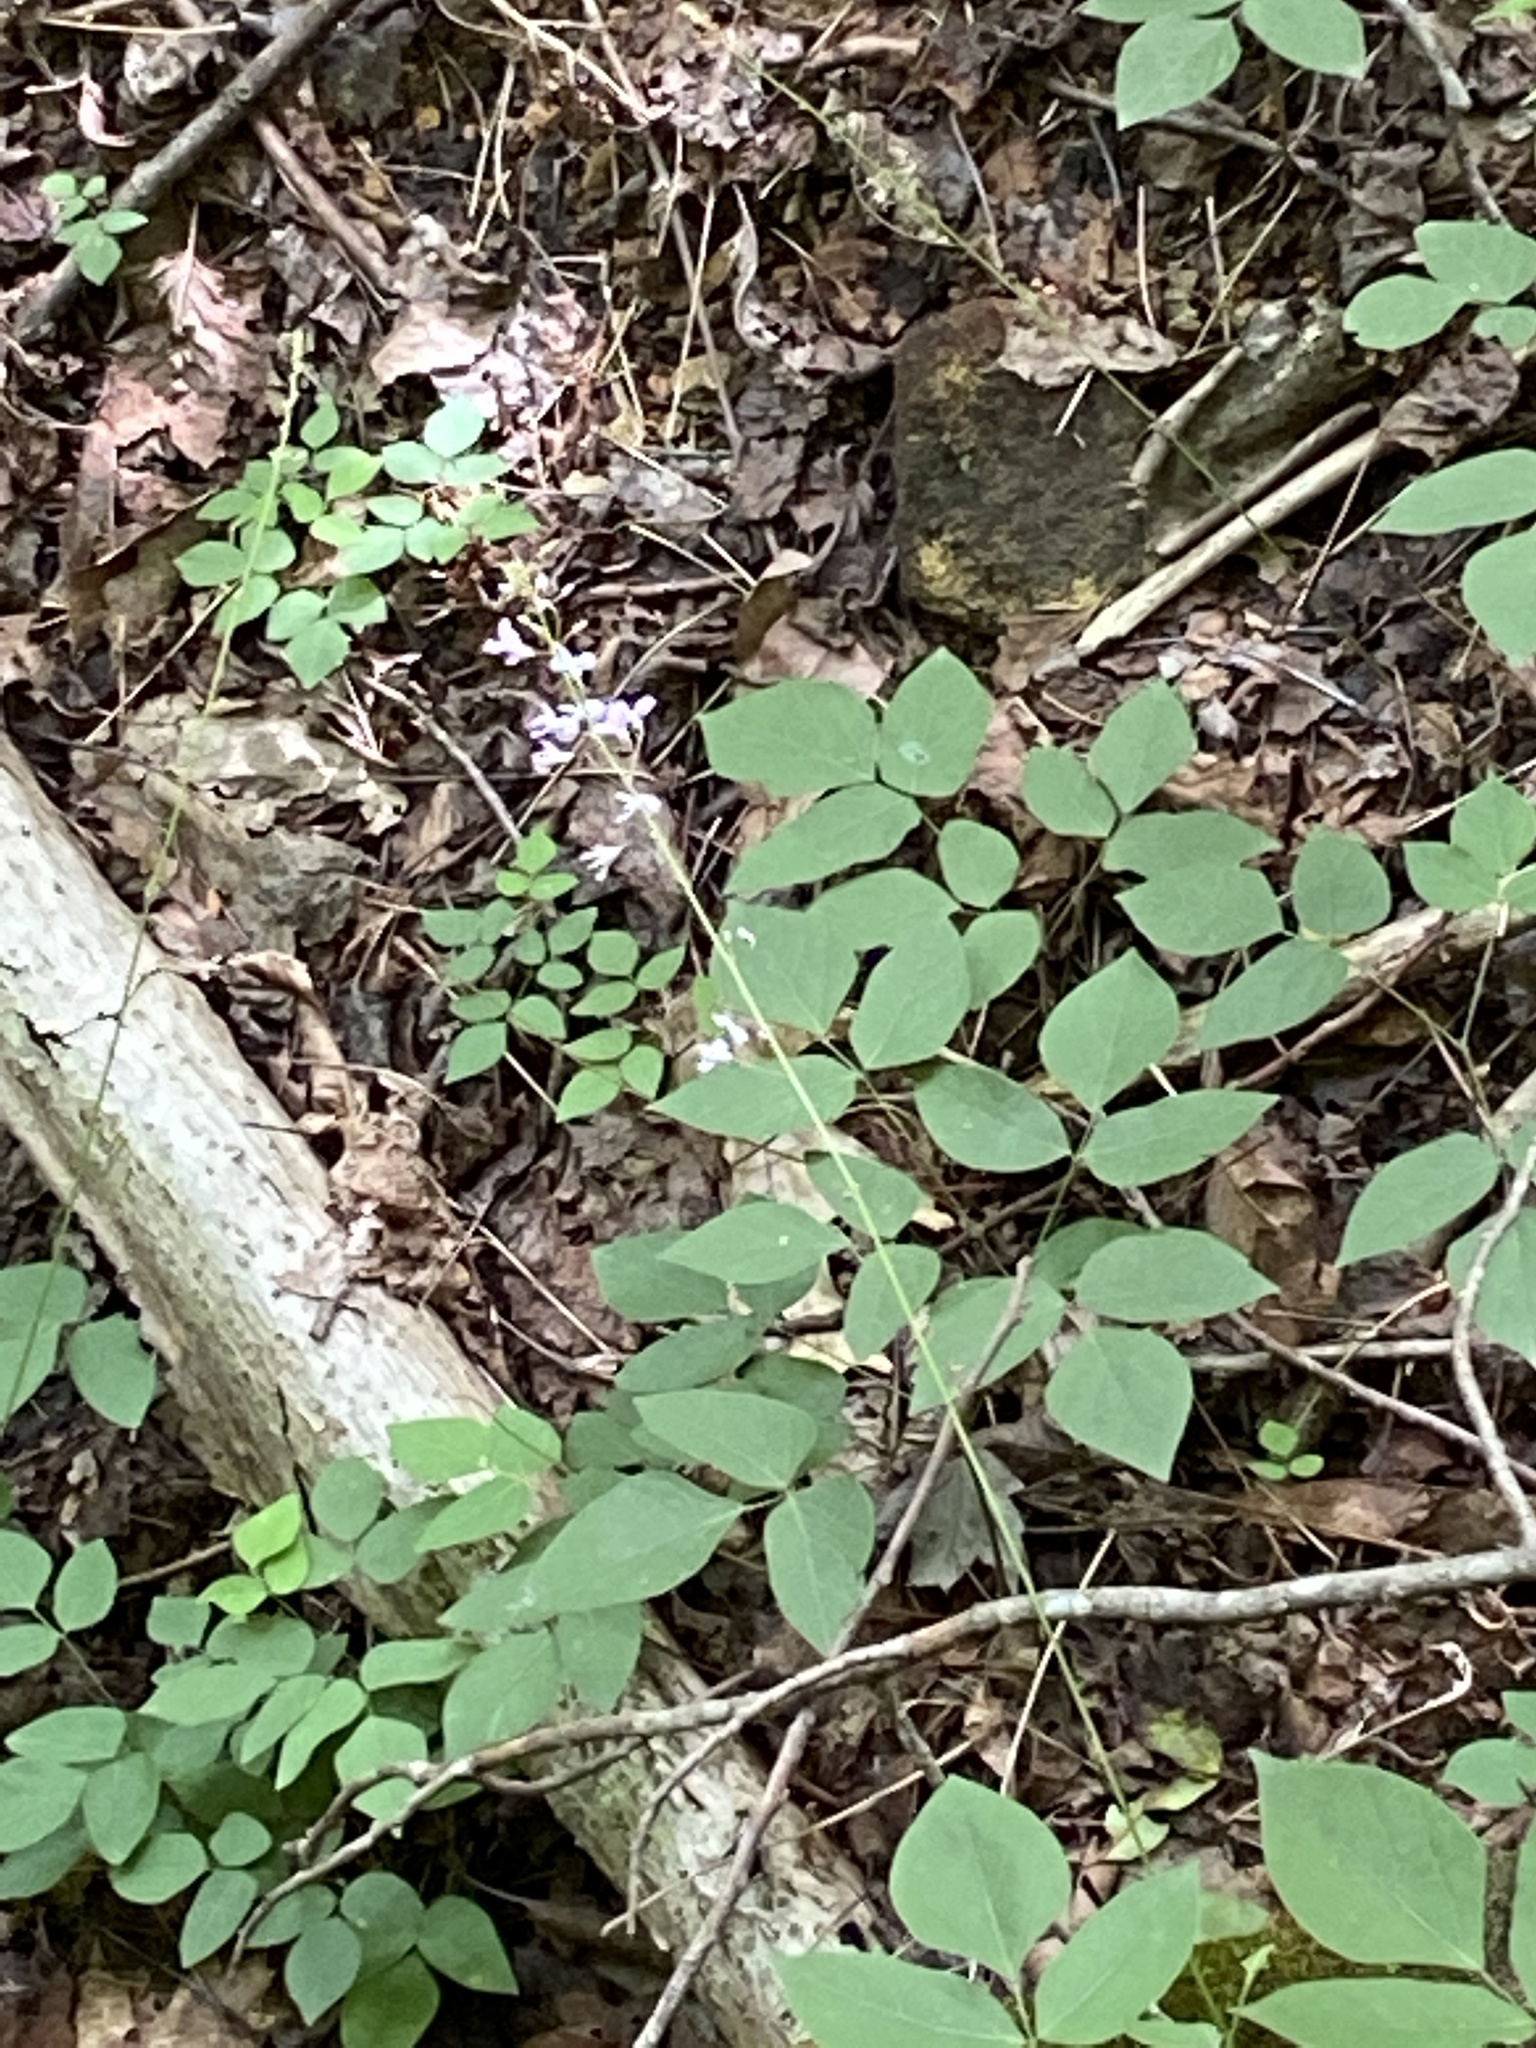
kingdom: Plantae
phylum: Tracheophyta
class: Magnoliopsida
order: Fabales
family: Fabaceae
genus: Hylodesmum
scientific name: Hylodesmum nudiflorum
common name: Bare-stemmed tick-trefoil
